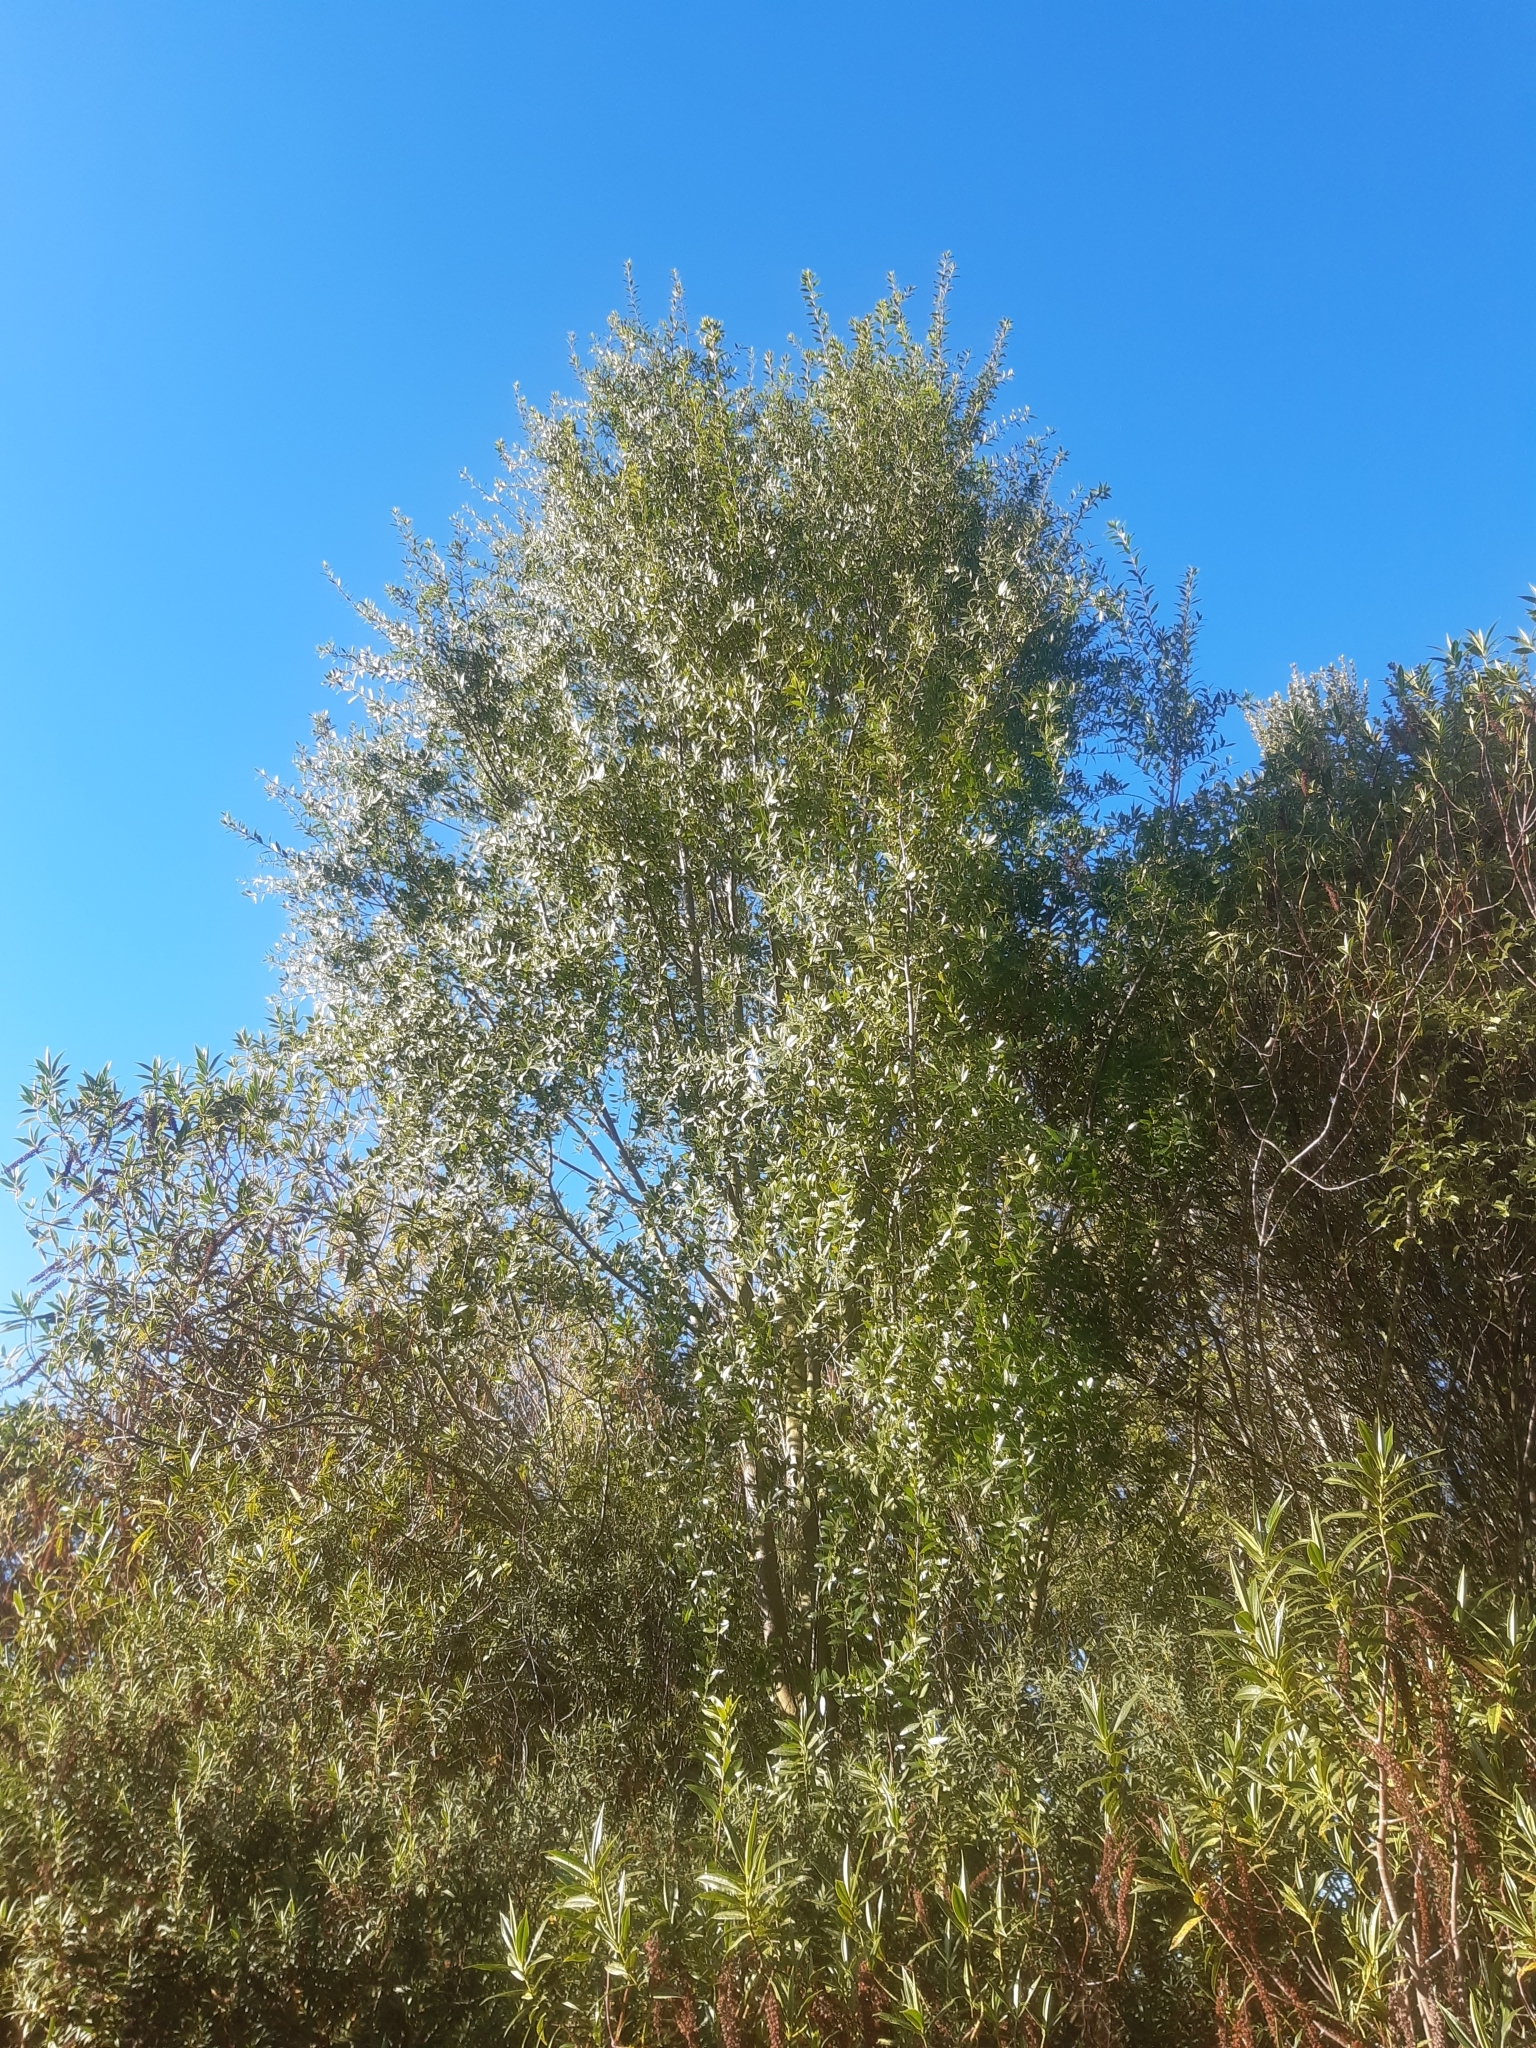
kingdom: Plantae
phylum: Tracheophyta
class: Magnoliopsida
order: Celastrales
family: Celastraceae
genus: Maytenus
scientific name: Maytenus boaria
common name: Mayten
